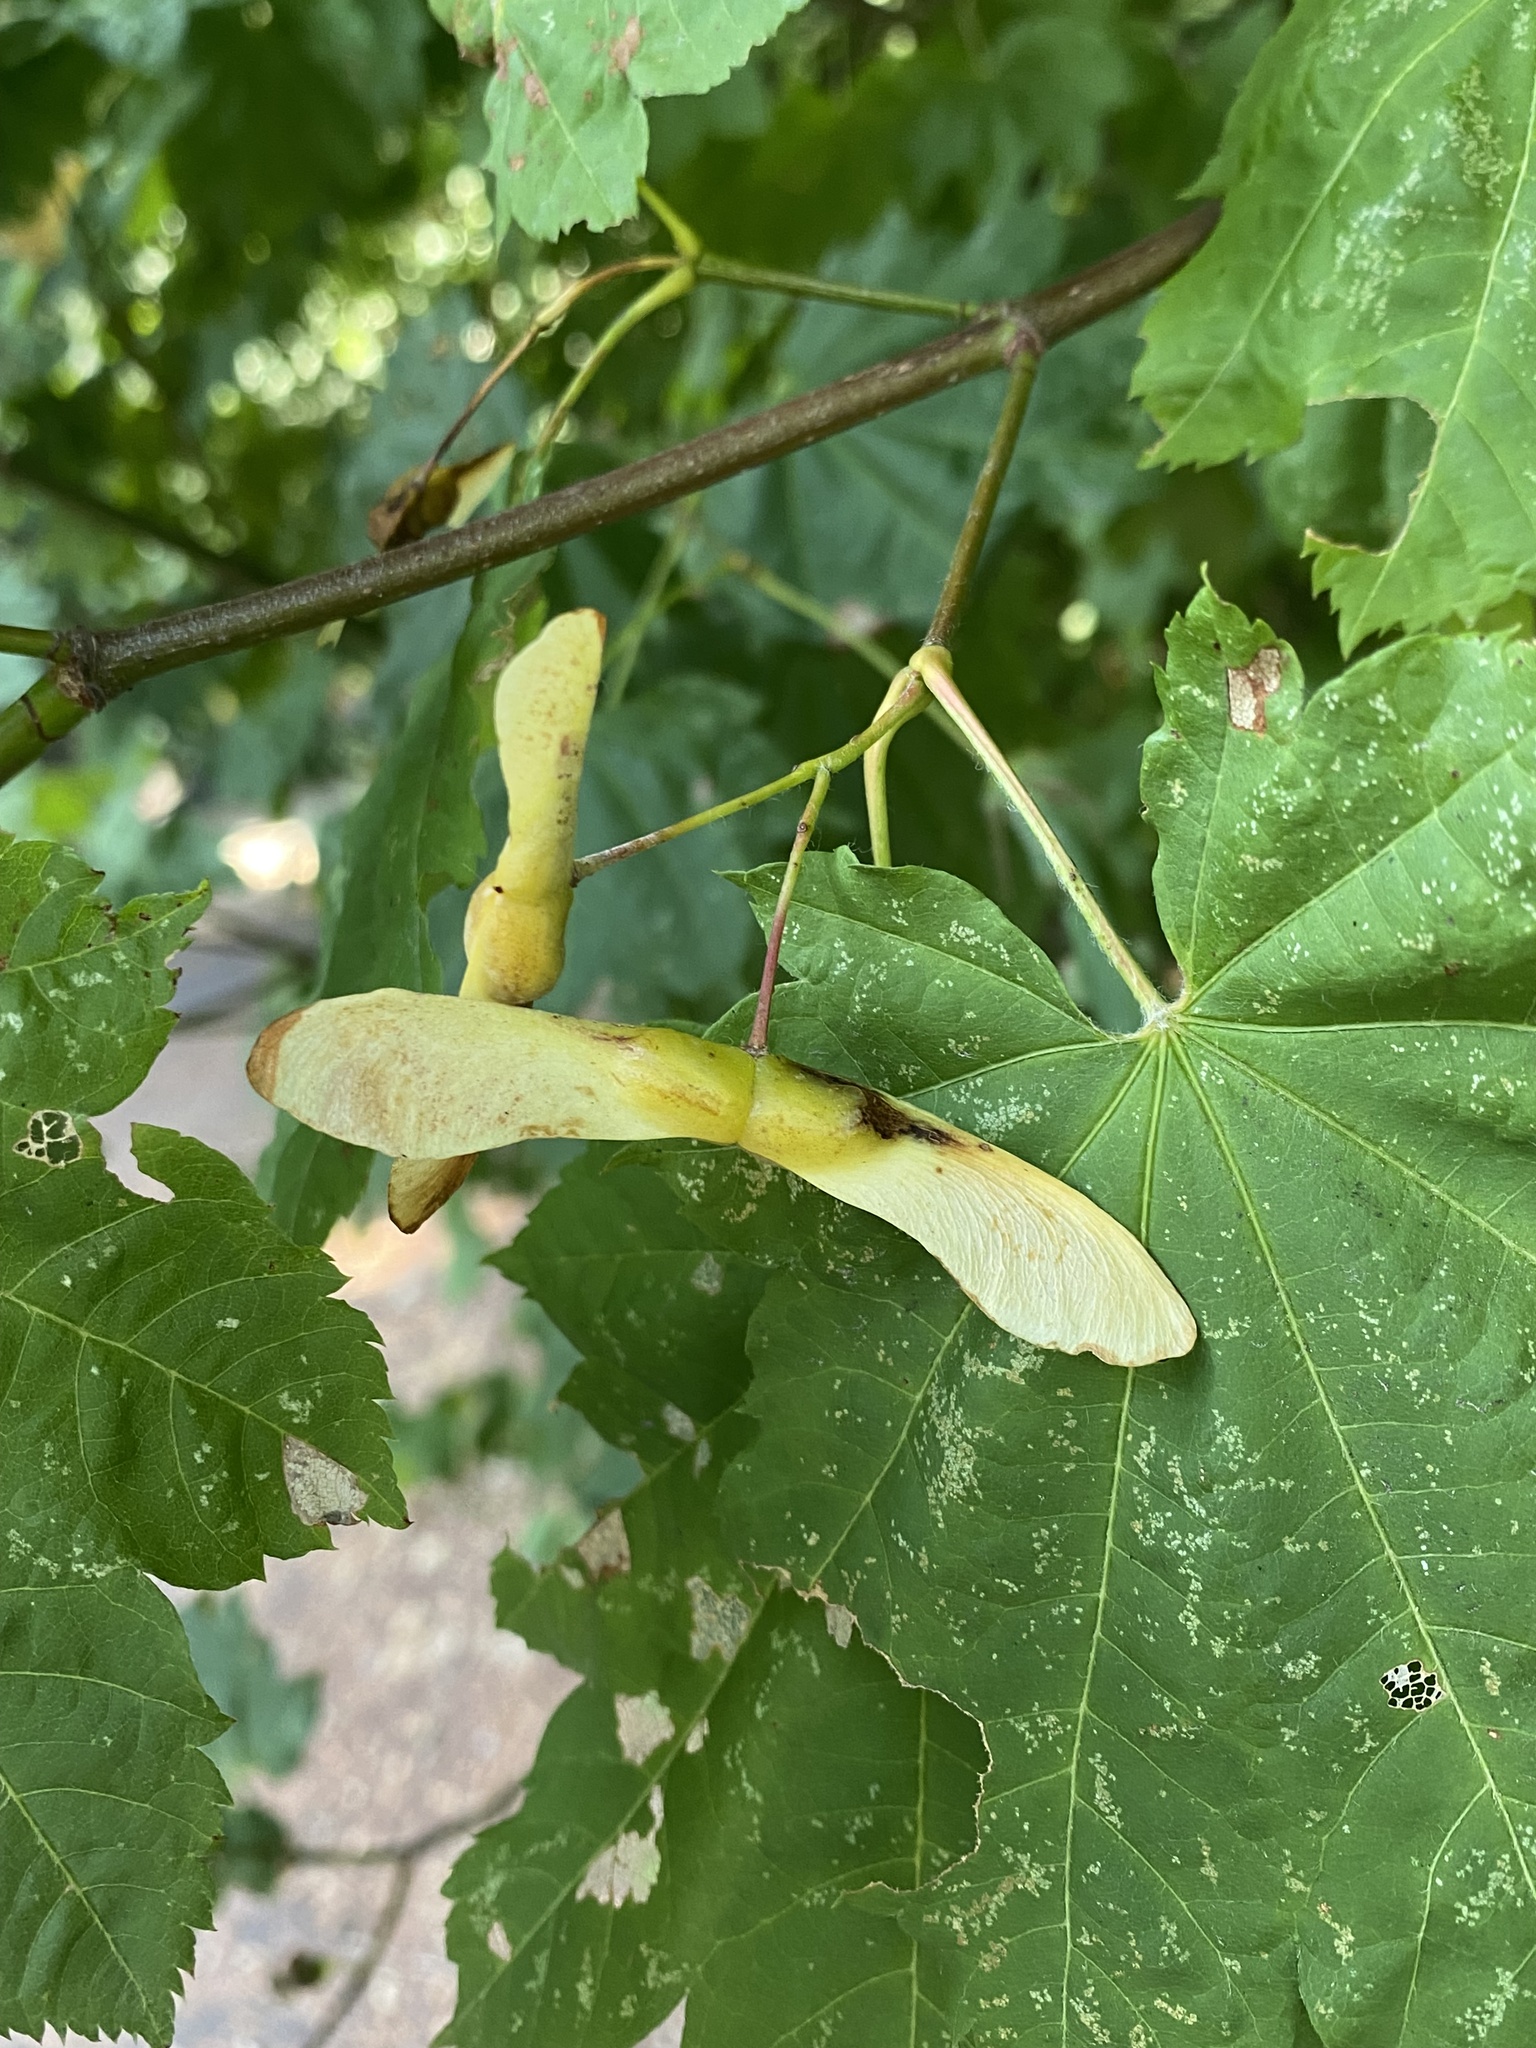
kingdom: Plantae
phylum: Tracheophyta
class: Magnoliopsida
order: Sapindales
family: Sapindaceae
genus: Acer
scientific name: Acer circinatum
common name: Vine maple
